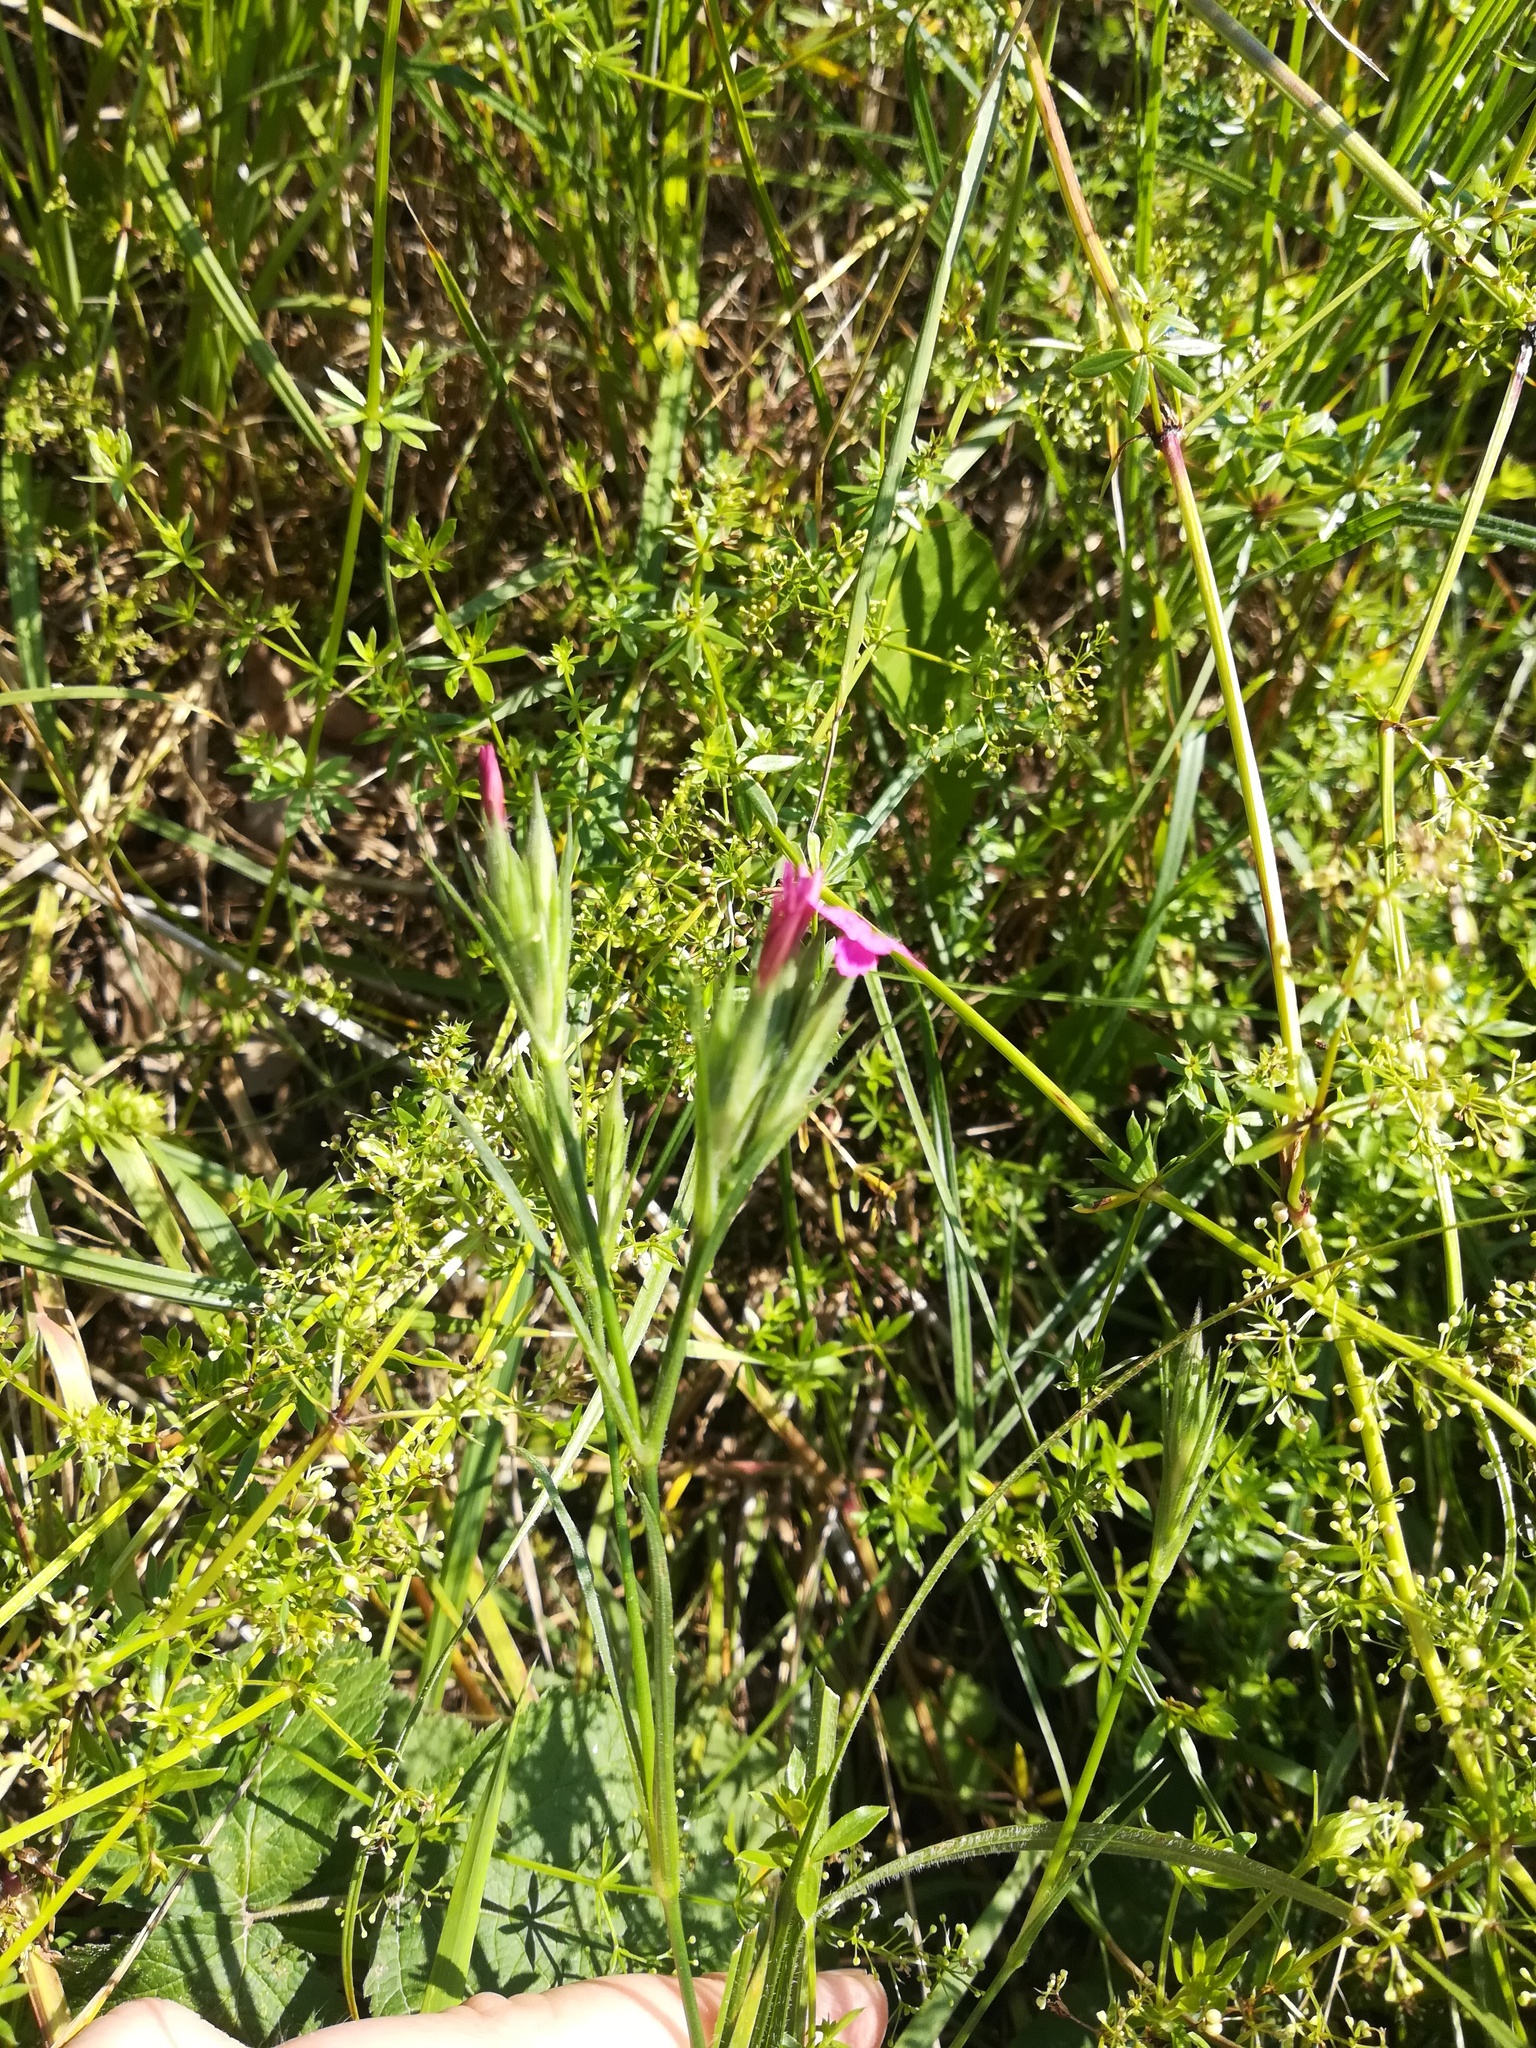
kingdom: Plantae
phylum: Tracheophyta
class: Magnoliopsida
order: Caryophyllales
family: Caryophyllaceae
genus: Dianthus
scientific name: Dianthus armeria
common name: Deptford pink
